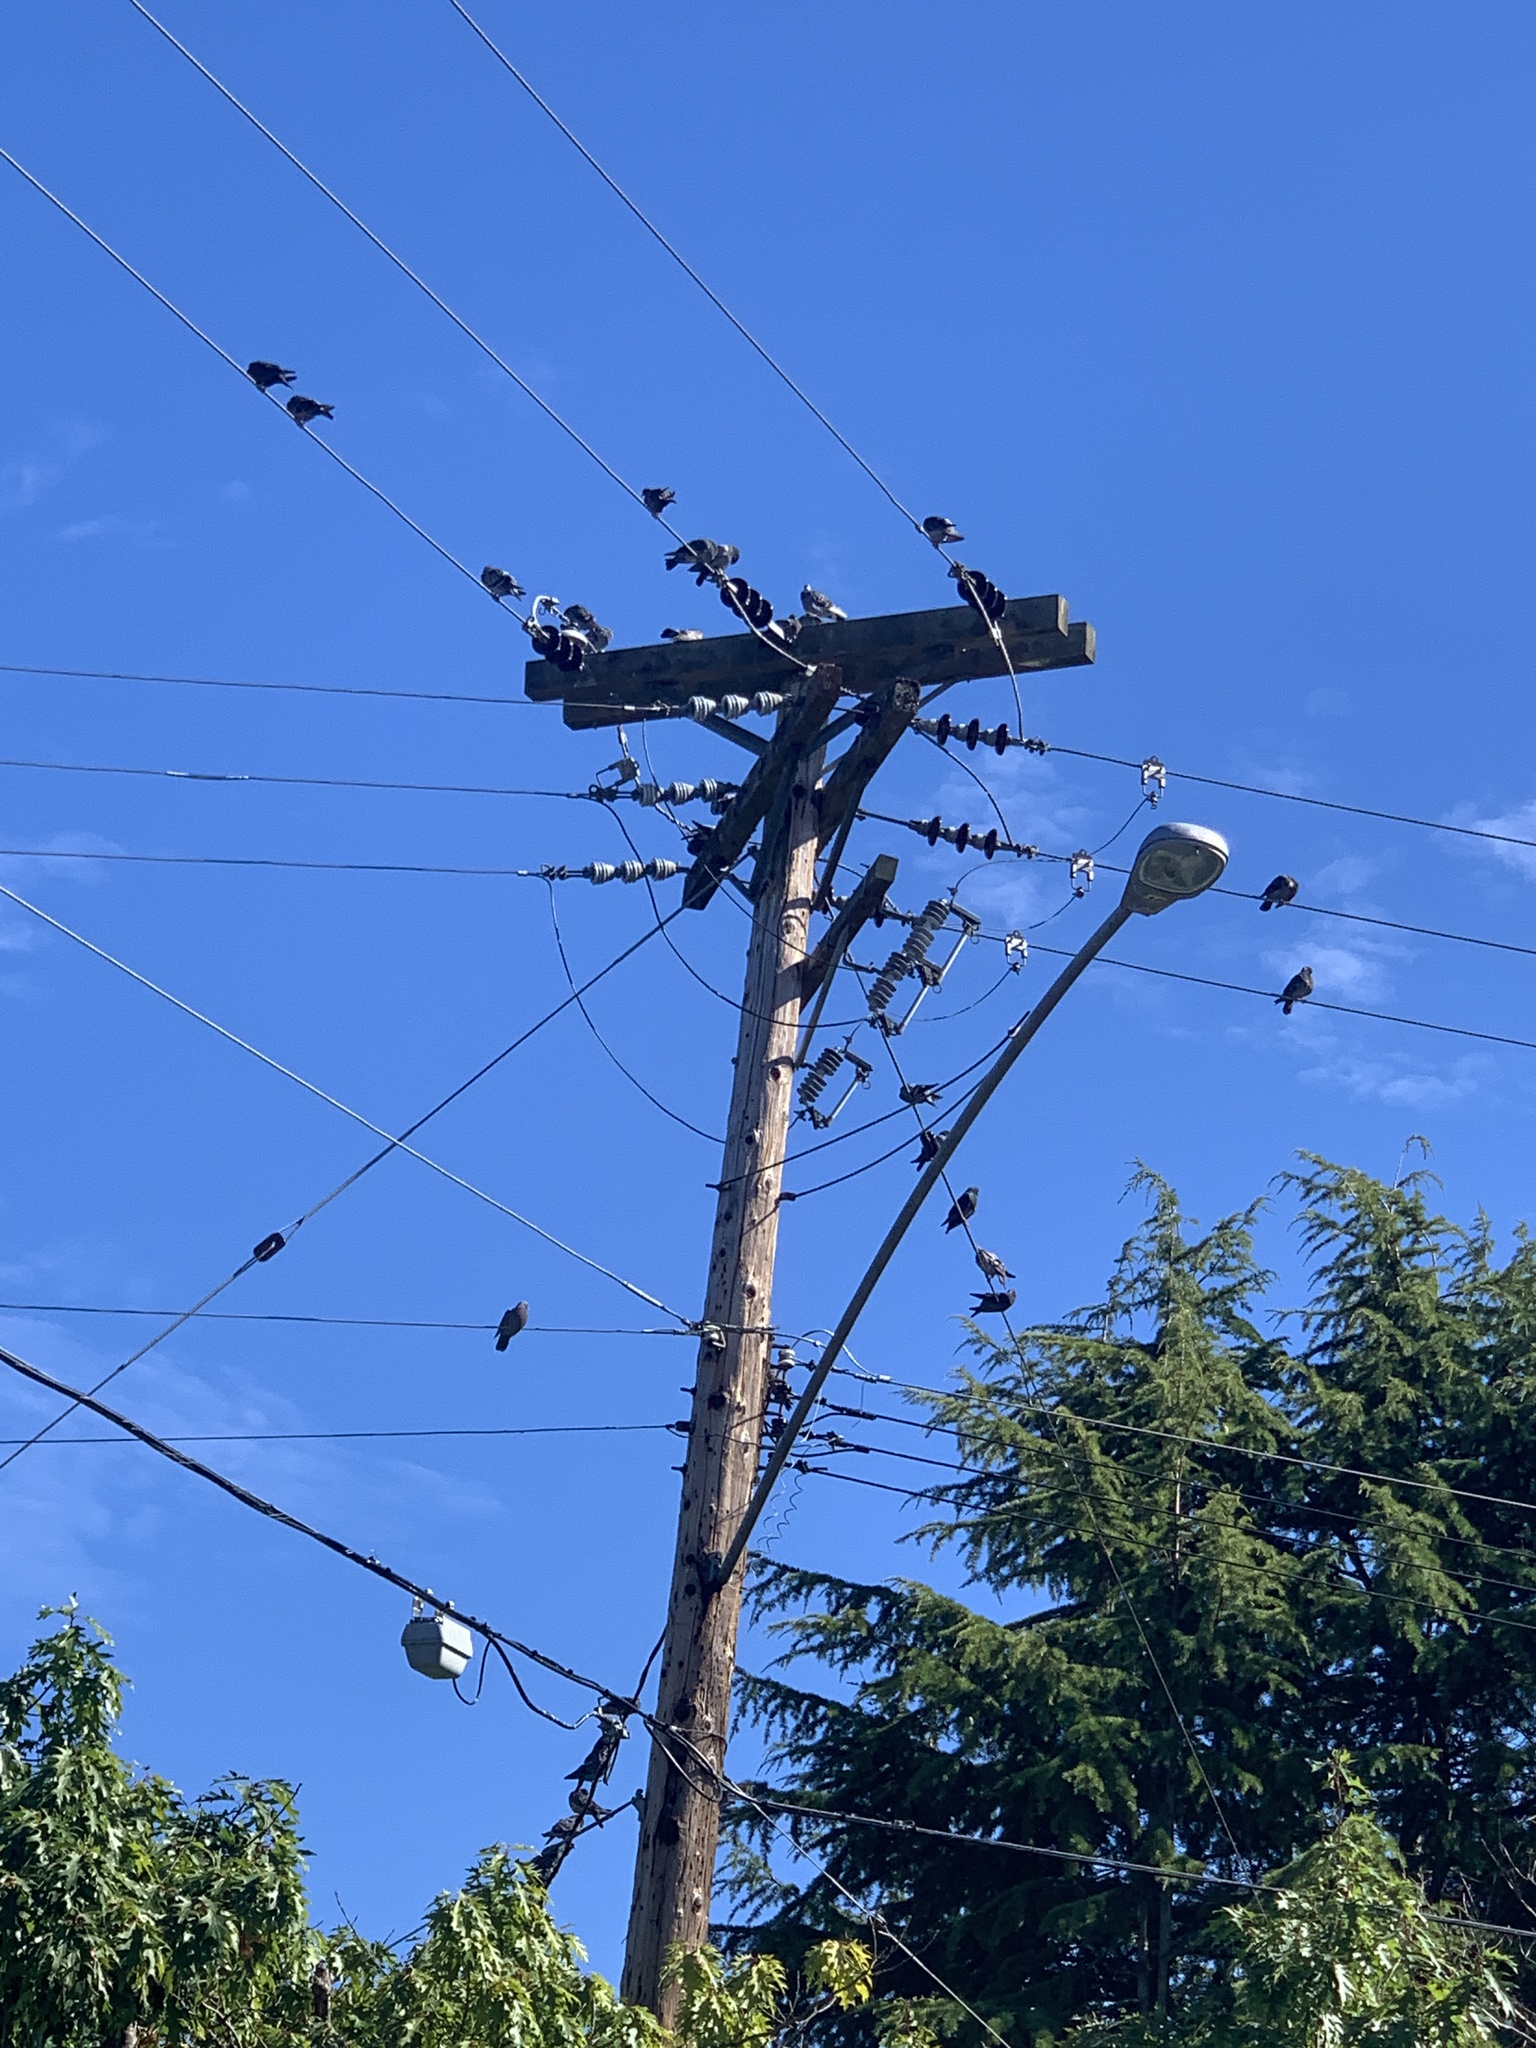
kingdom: Animalia
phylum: Chordata
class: Aves
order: Columbiformes
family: Columbidae
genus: Columba
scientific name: Columba livia
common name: Rock pigeon
